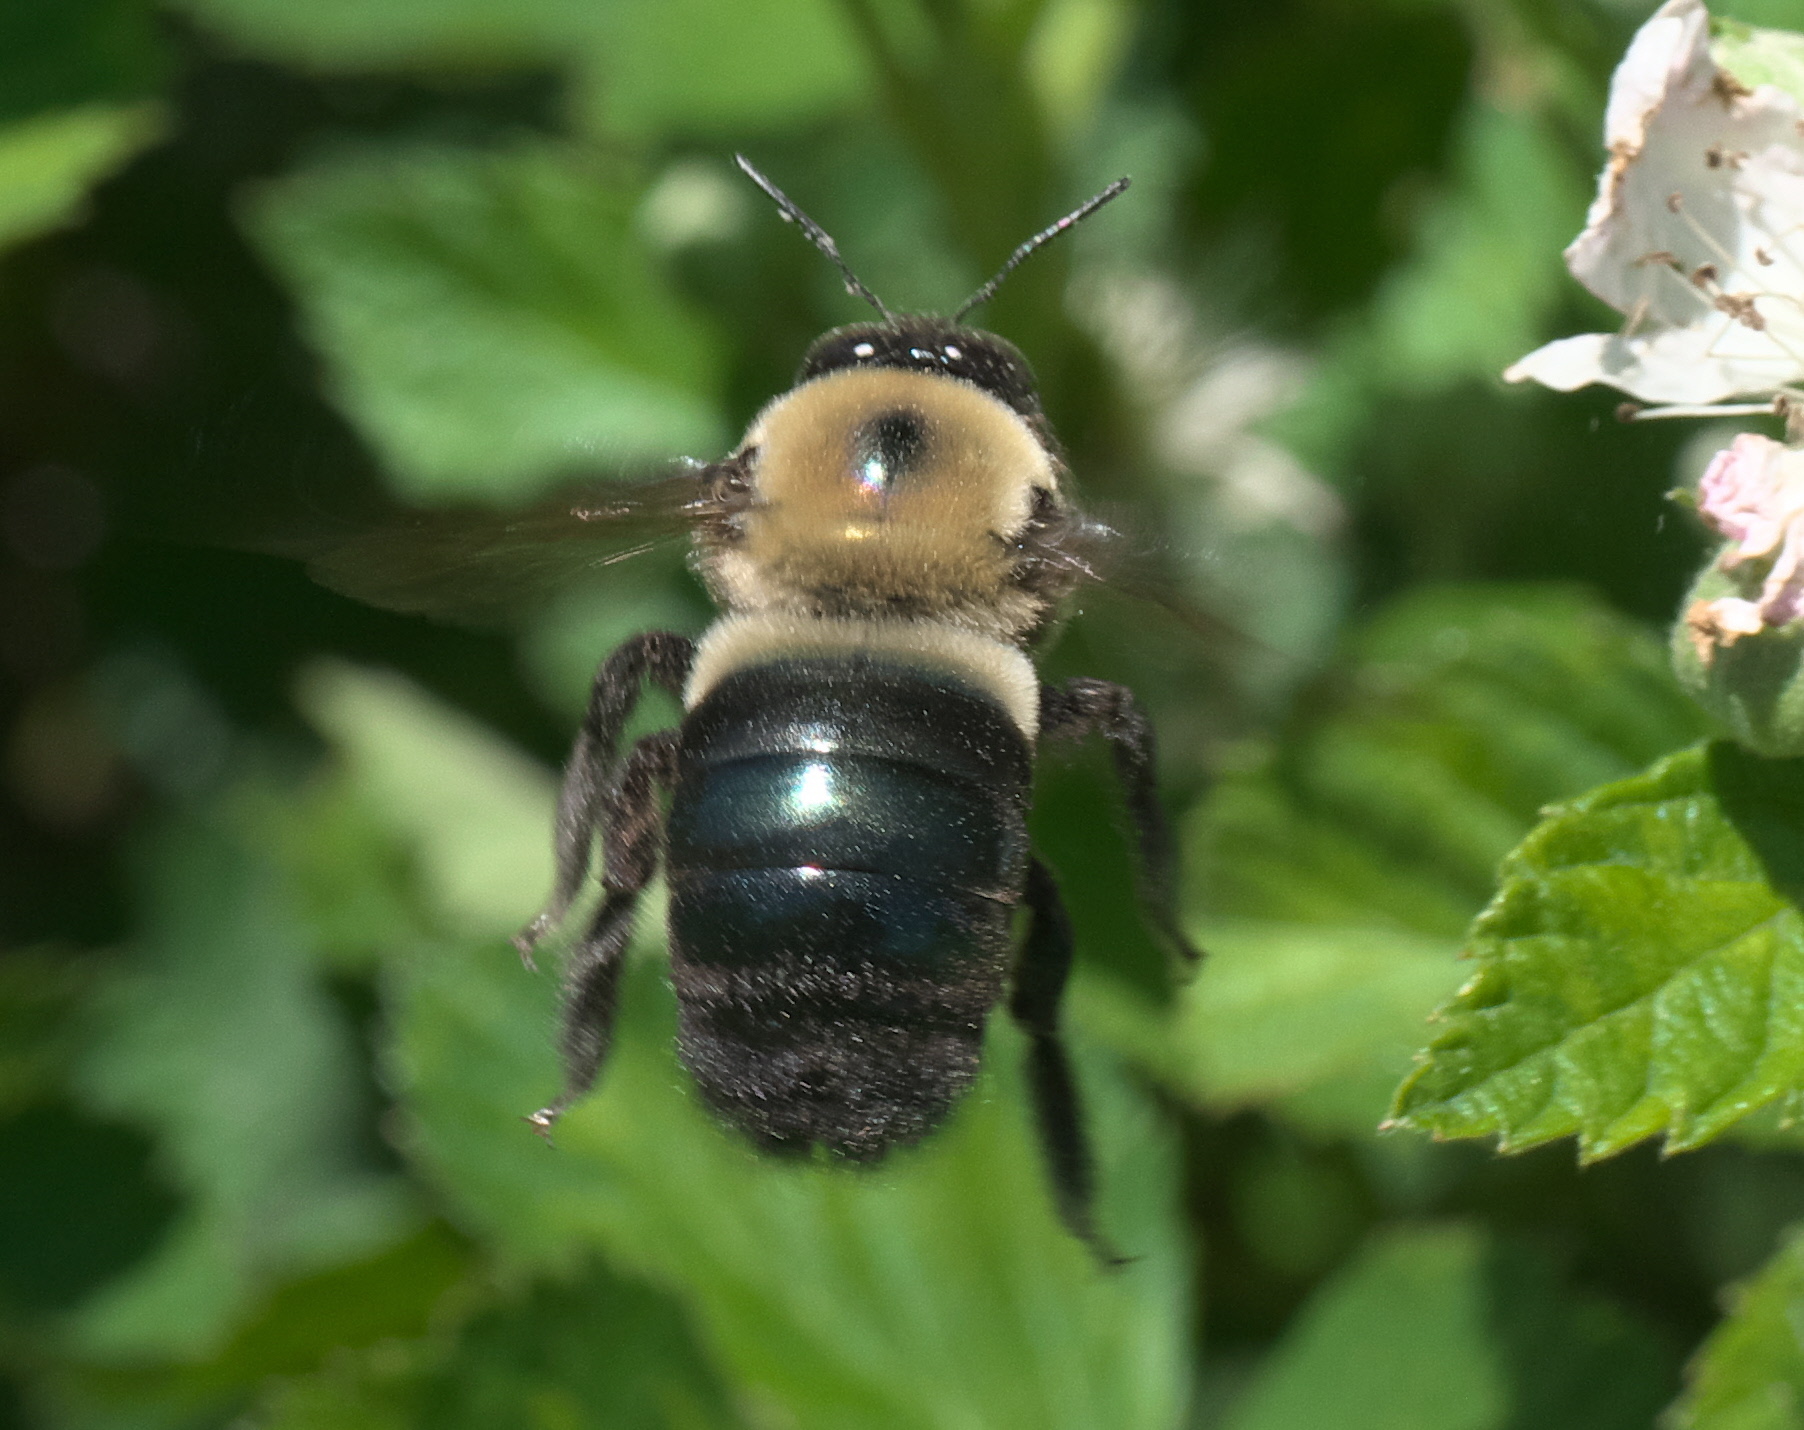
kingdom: Animalia
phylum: Arthropoda
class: Insecta
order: Hymenoptera
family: Apidae
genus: Xylocopa
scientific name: Xylocopa virginica
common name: Carpenter bee
